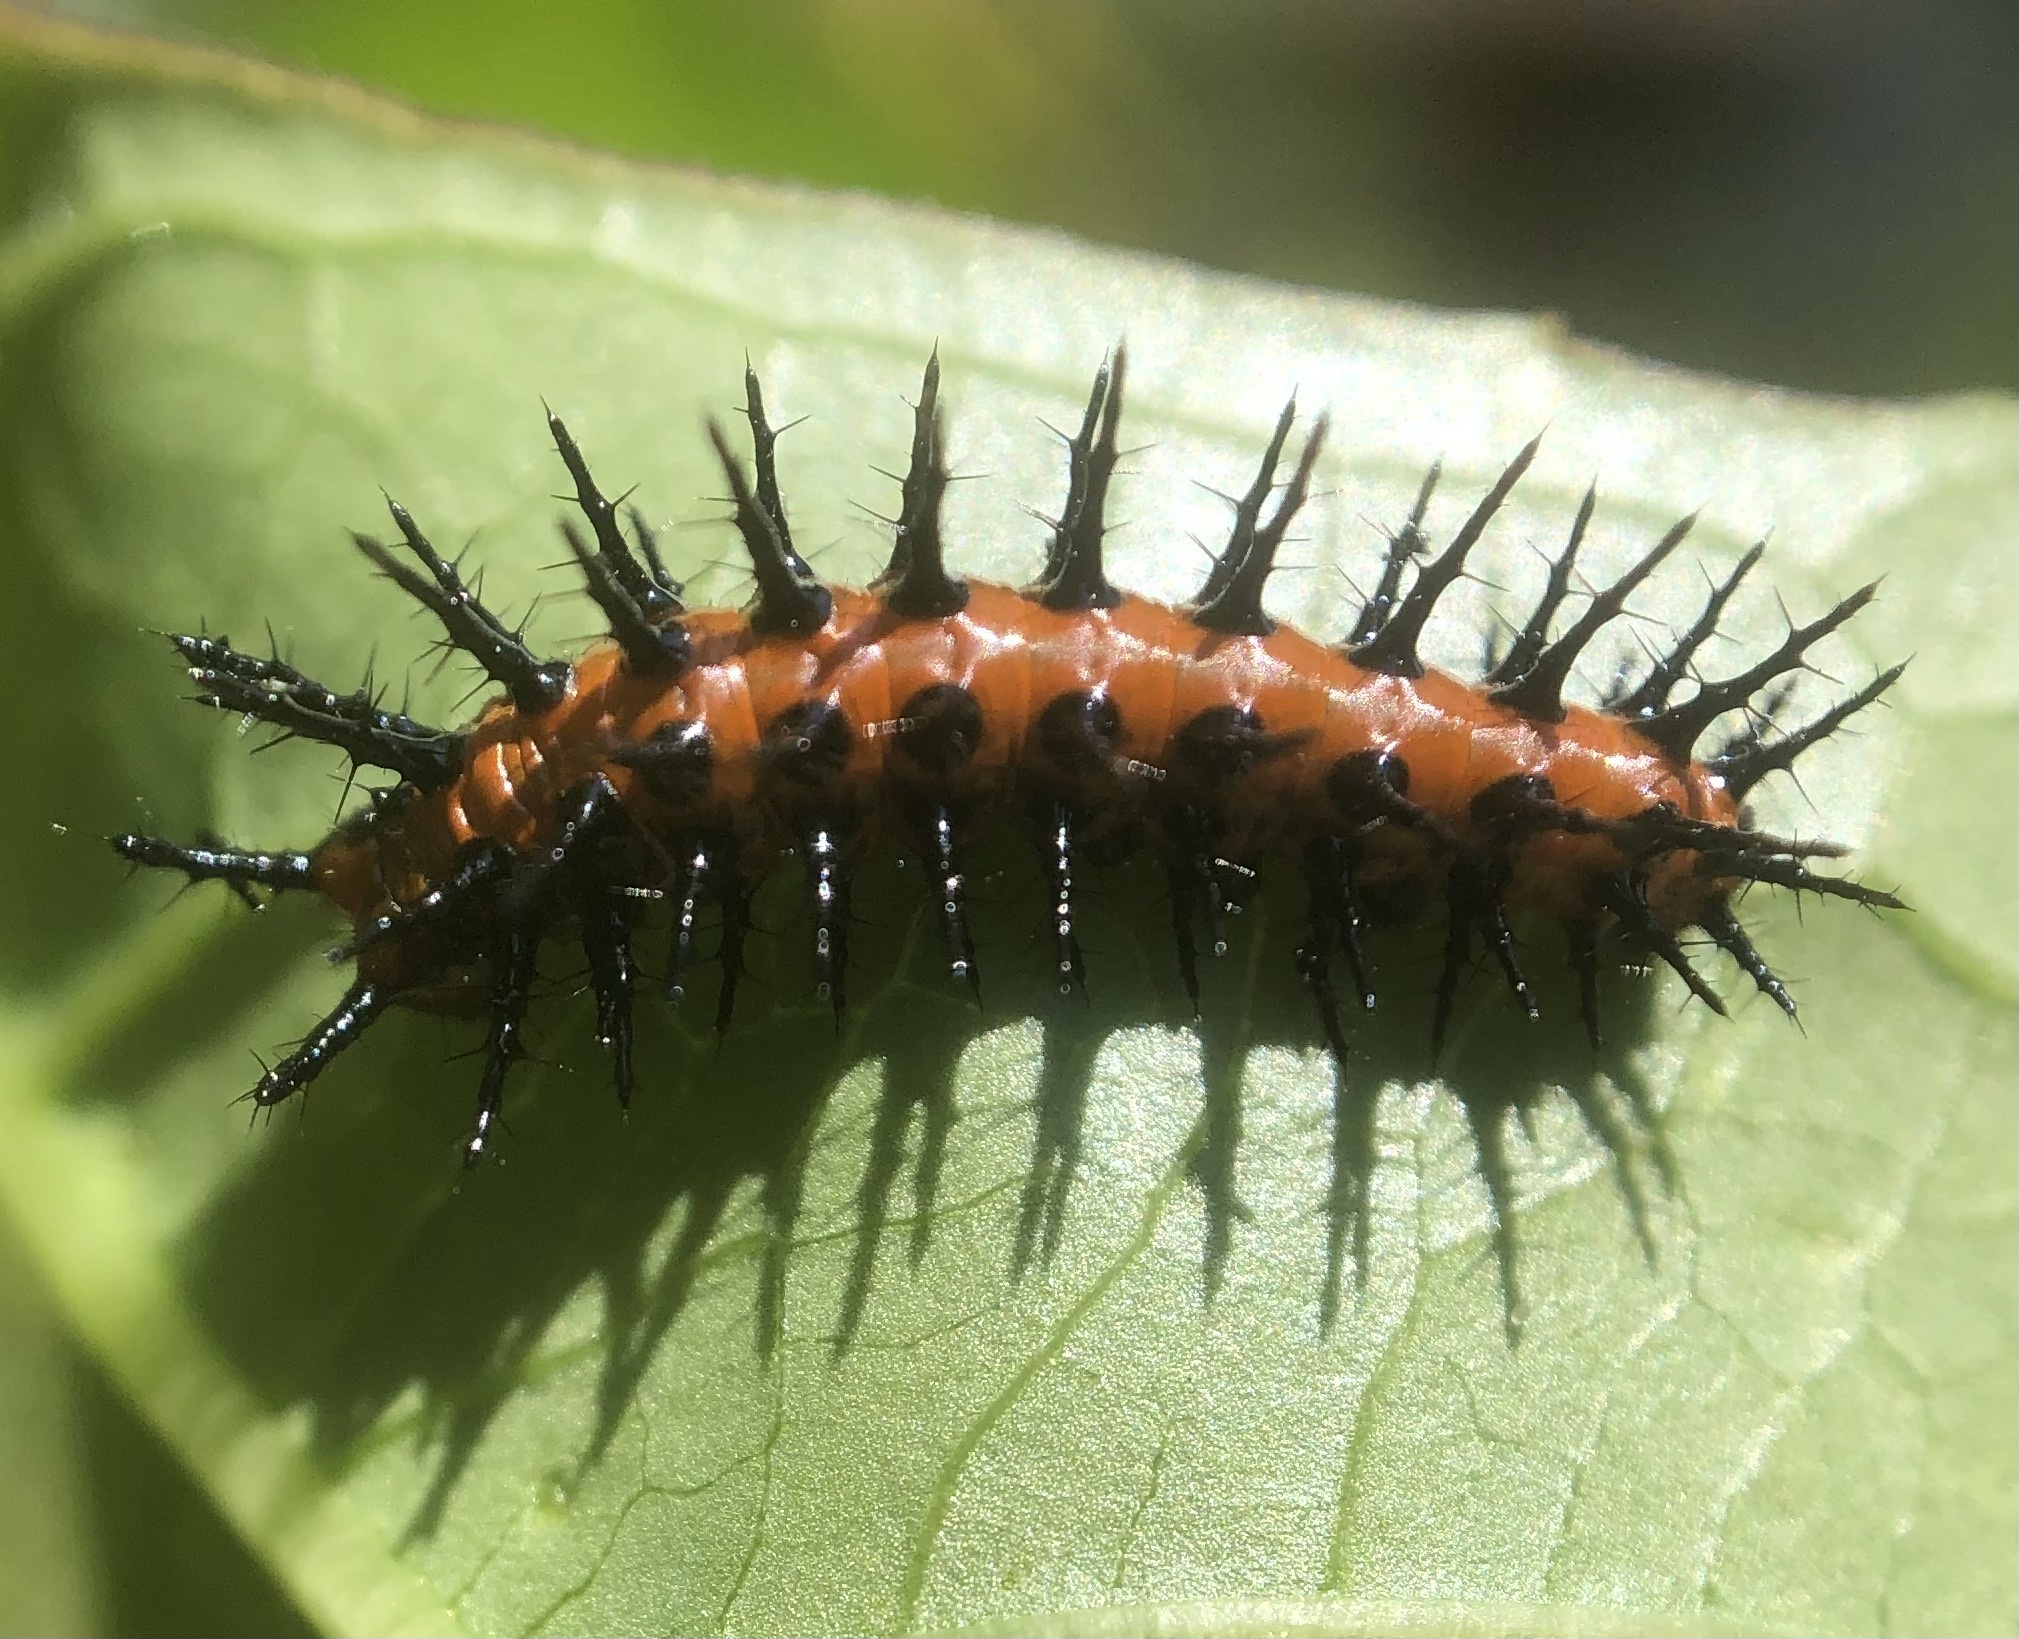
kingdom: Animalia
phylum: Arthropoda
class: Insecta
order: Lepidoptera
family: Nymphalidae
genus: Dione
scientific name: Dione vanillae
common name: Gulf fritillary
